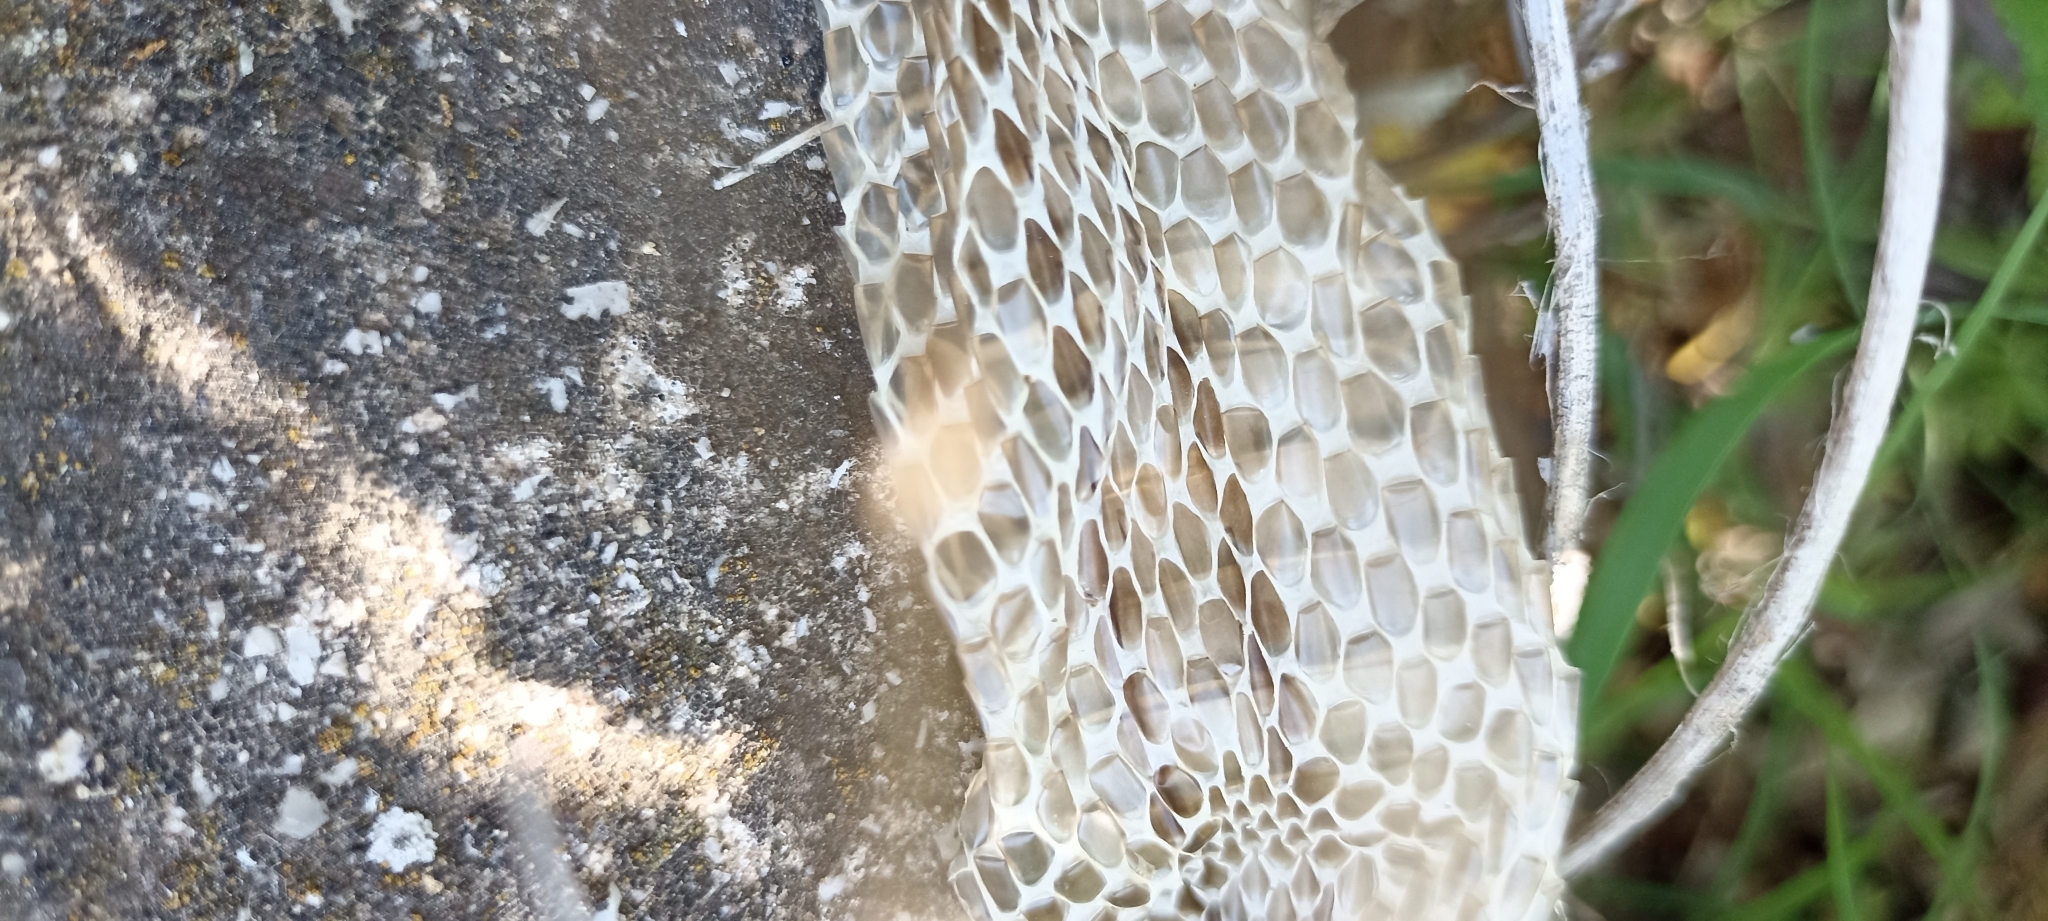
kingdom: Animalia
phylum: Chordata
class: Squamata
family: Colubridae
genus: Zamenis
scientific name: Zamenis scalaris
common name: Ladder snakes
